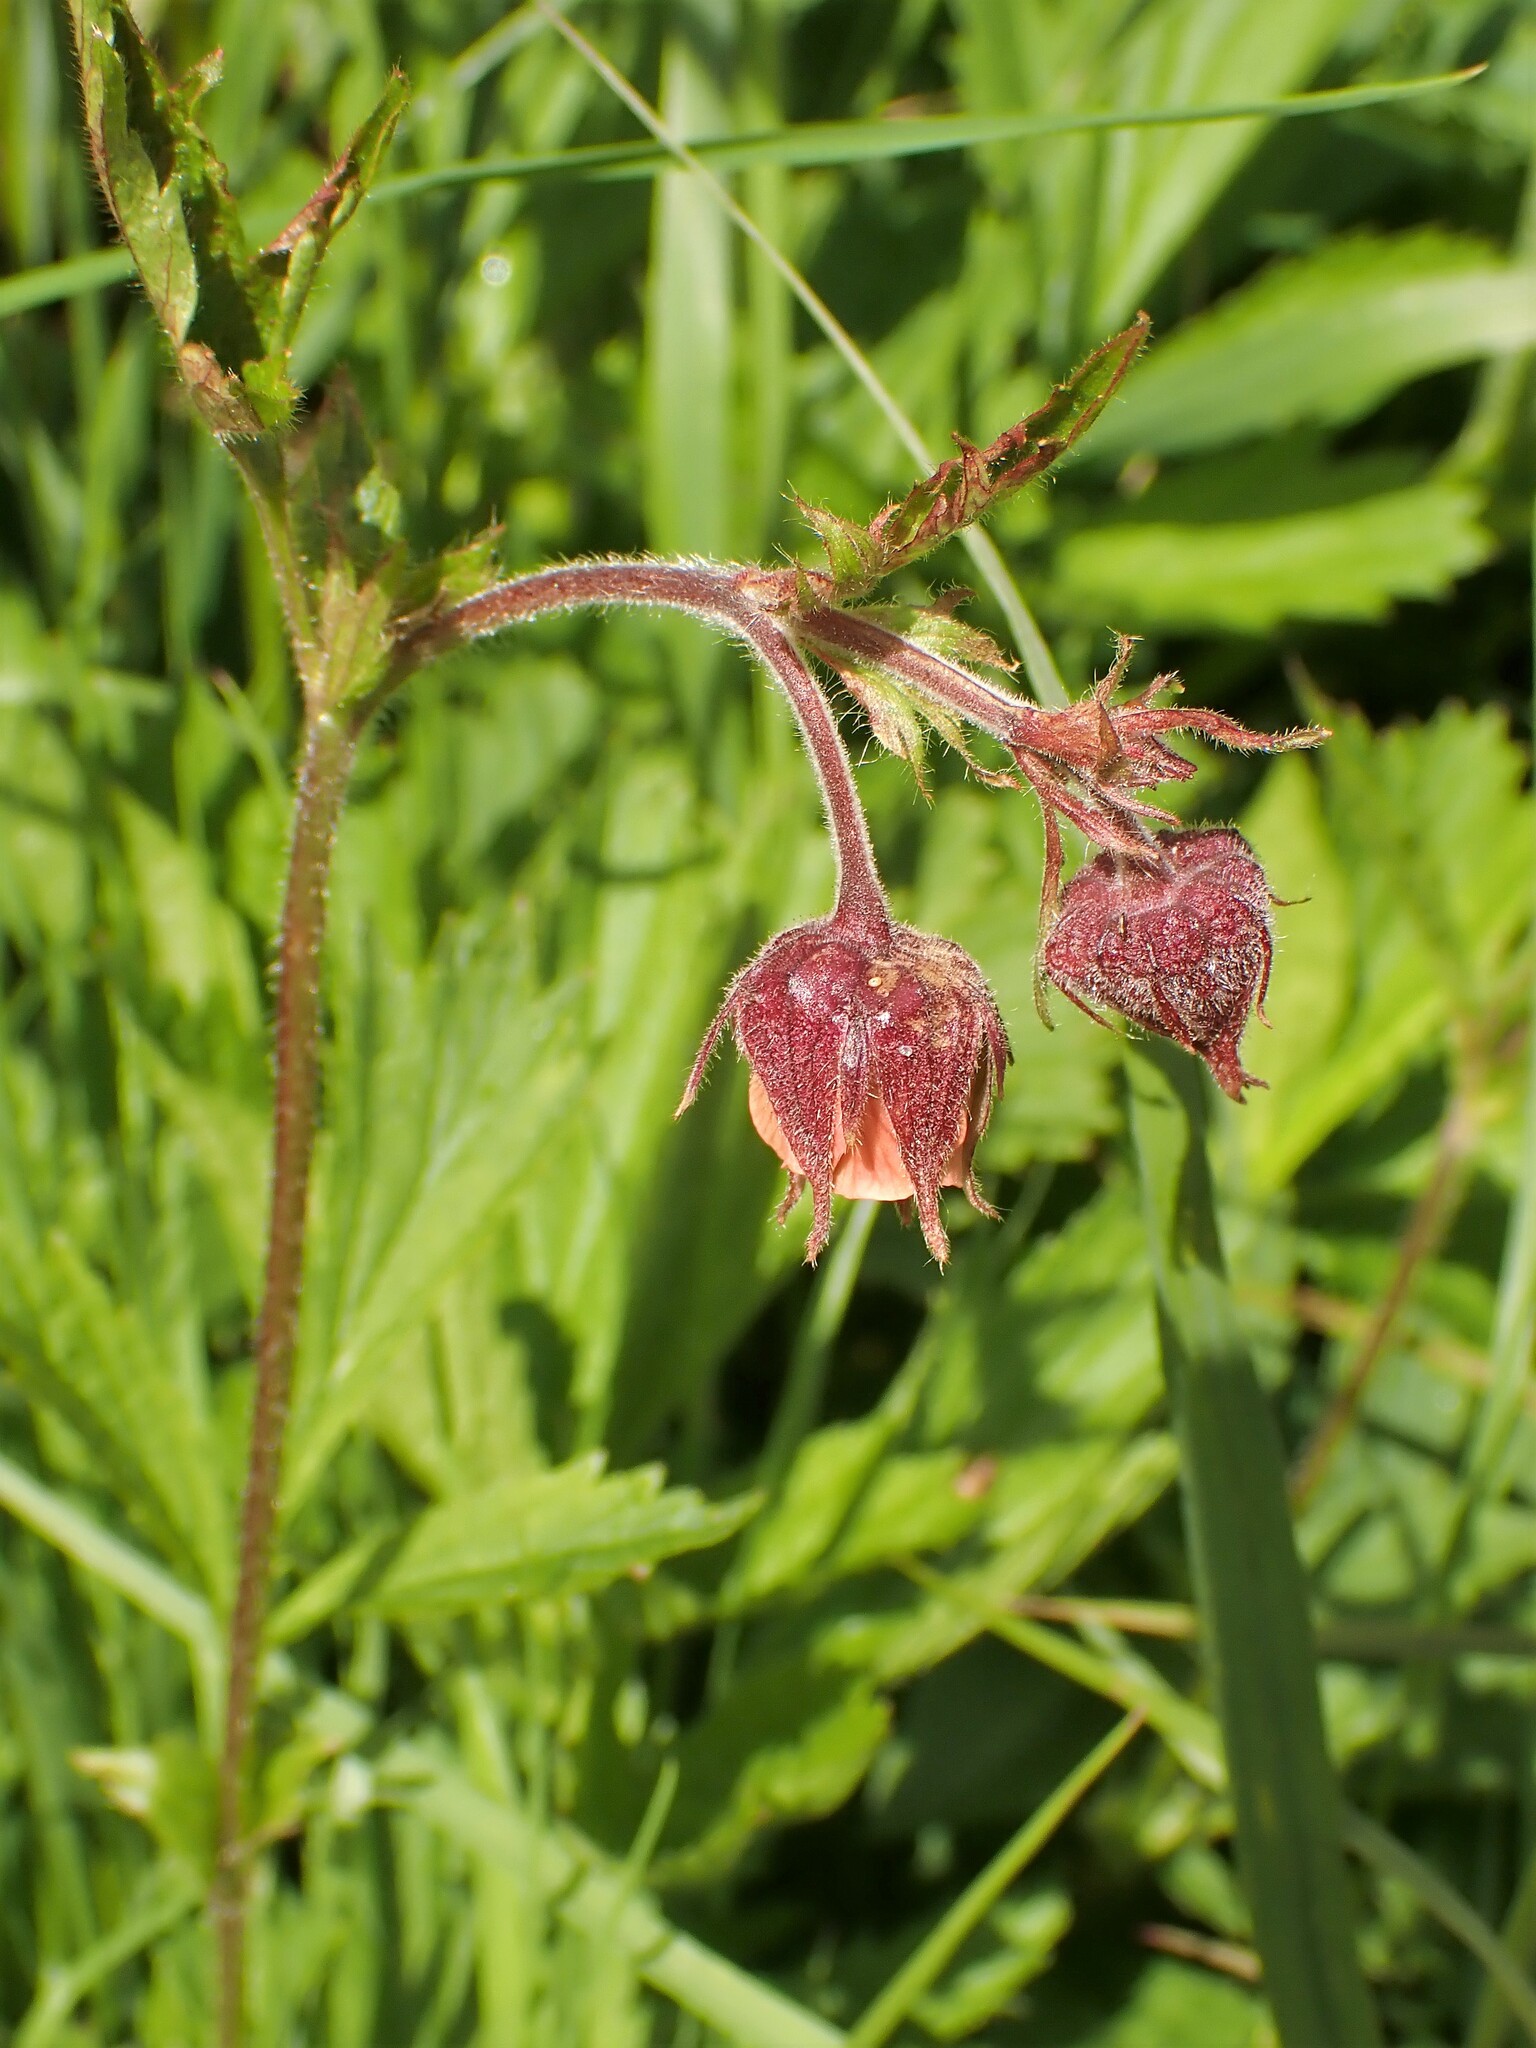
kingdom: Plantae
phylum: Tracheophyta
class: Magnoliopsida
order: Rosales
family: Rosaceae
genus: Geum
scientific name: Geum rivale
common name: Water avens
